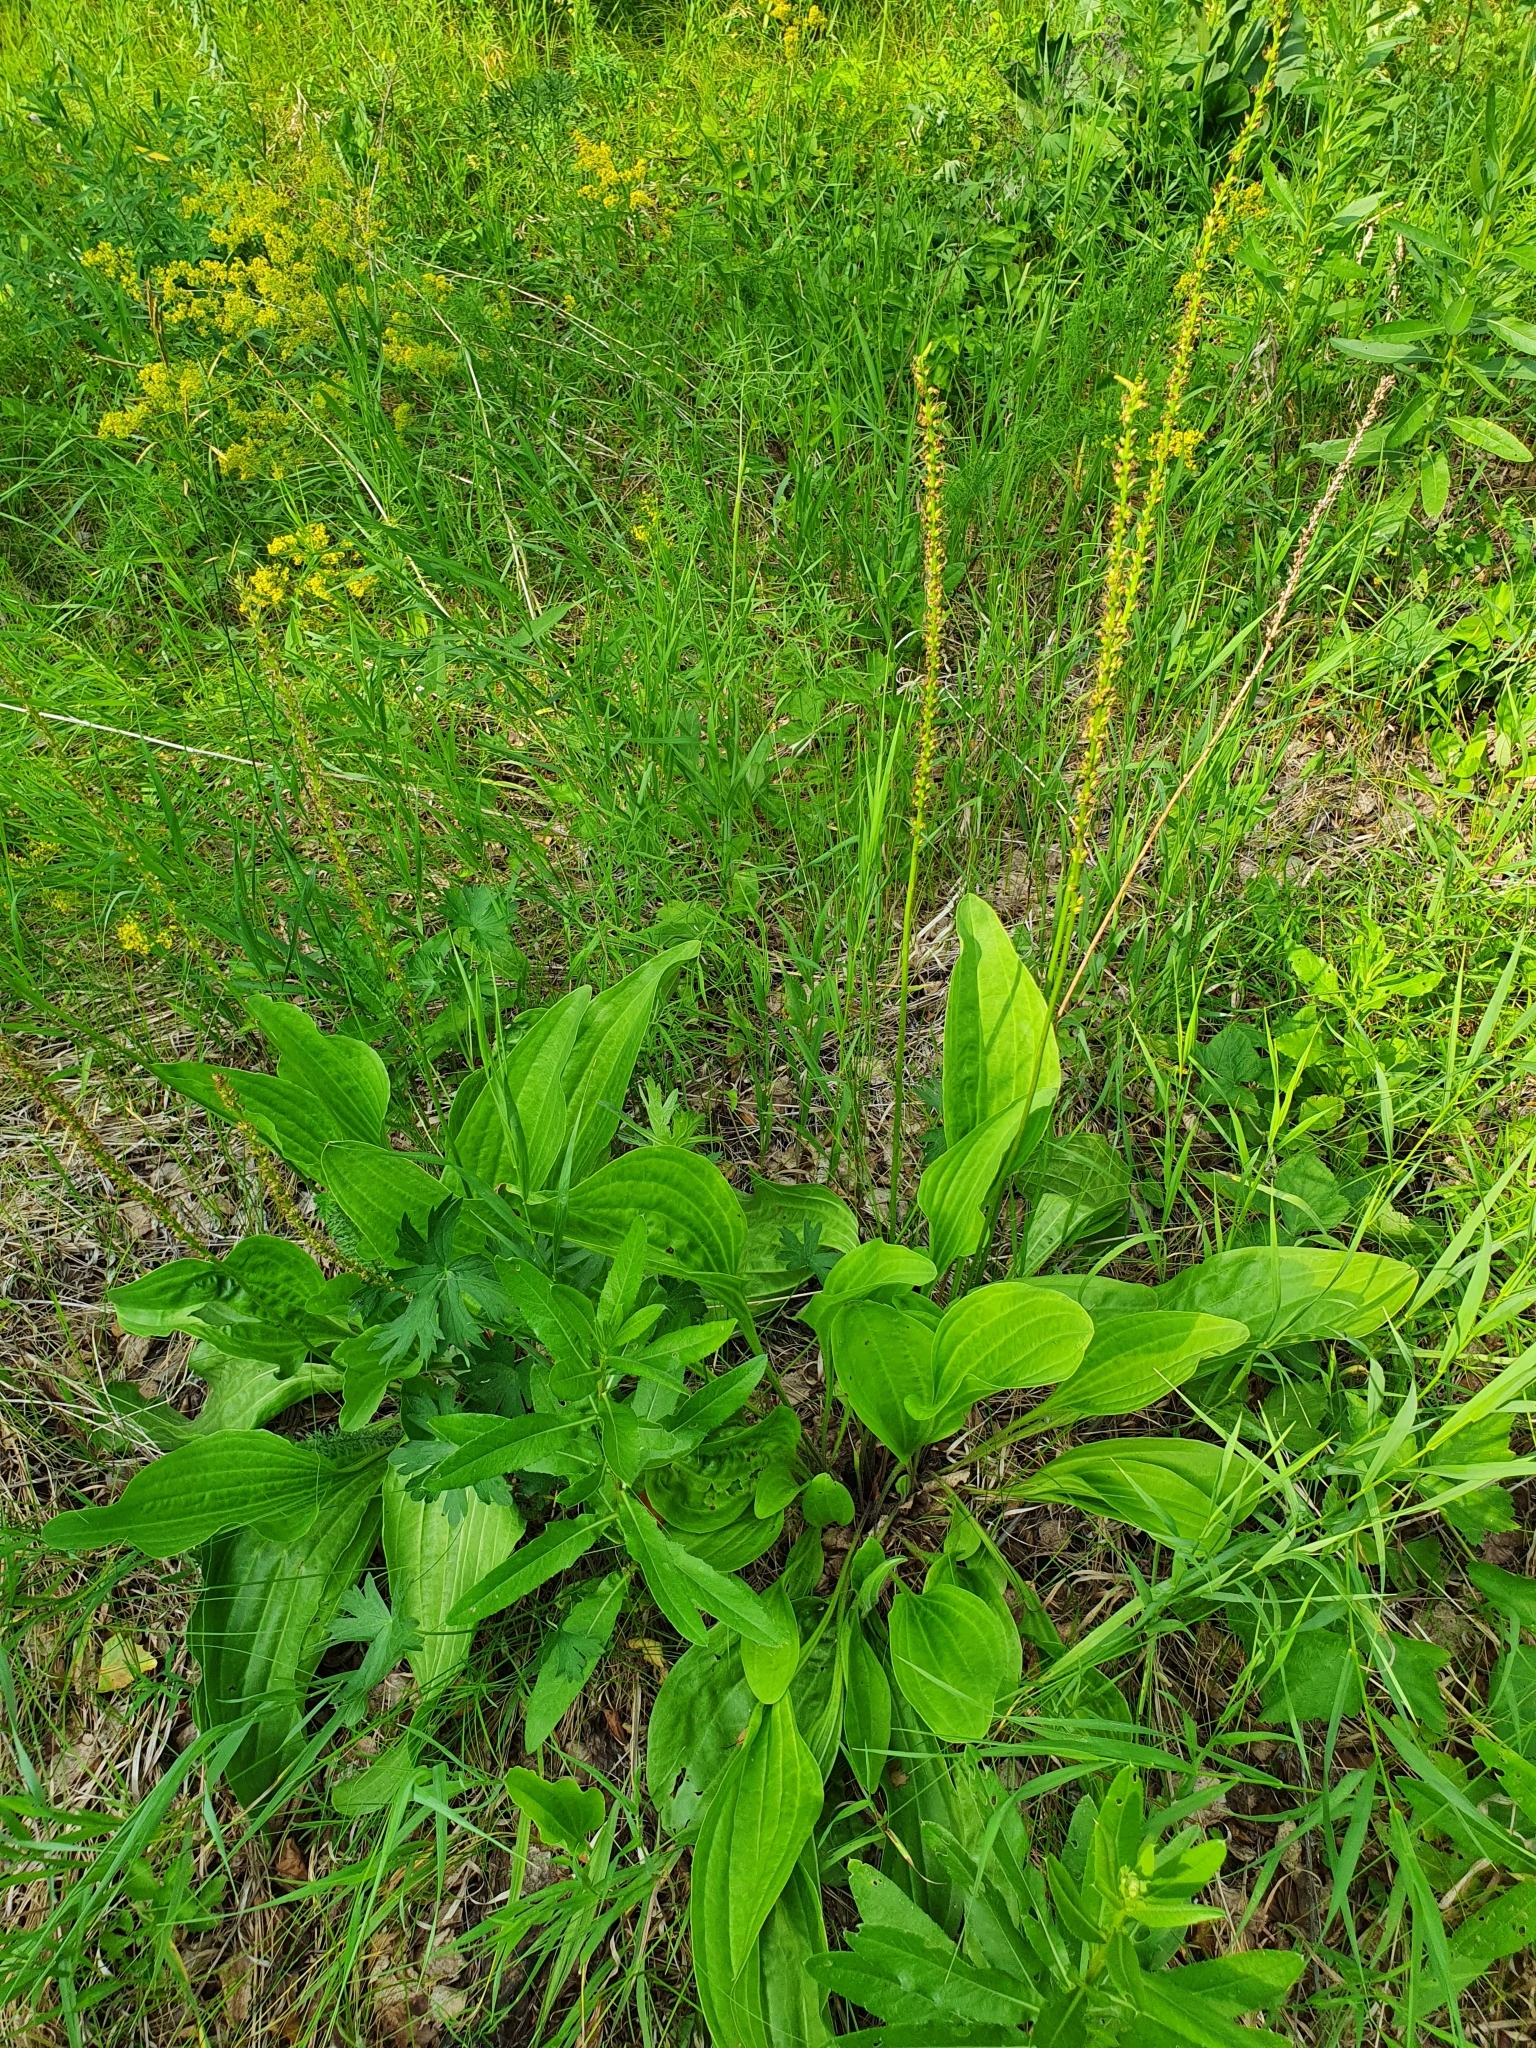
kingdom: Plantae
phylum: Tracheophyta
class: Magnoliopsida
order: Lamiales
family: Plantaginaceae
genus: Plantago
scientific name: Plantago cornuti
